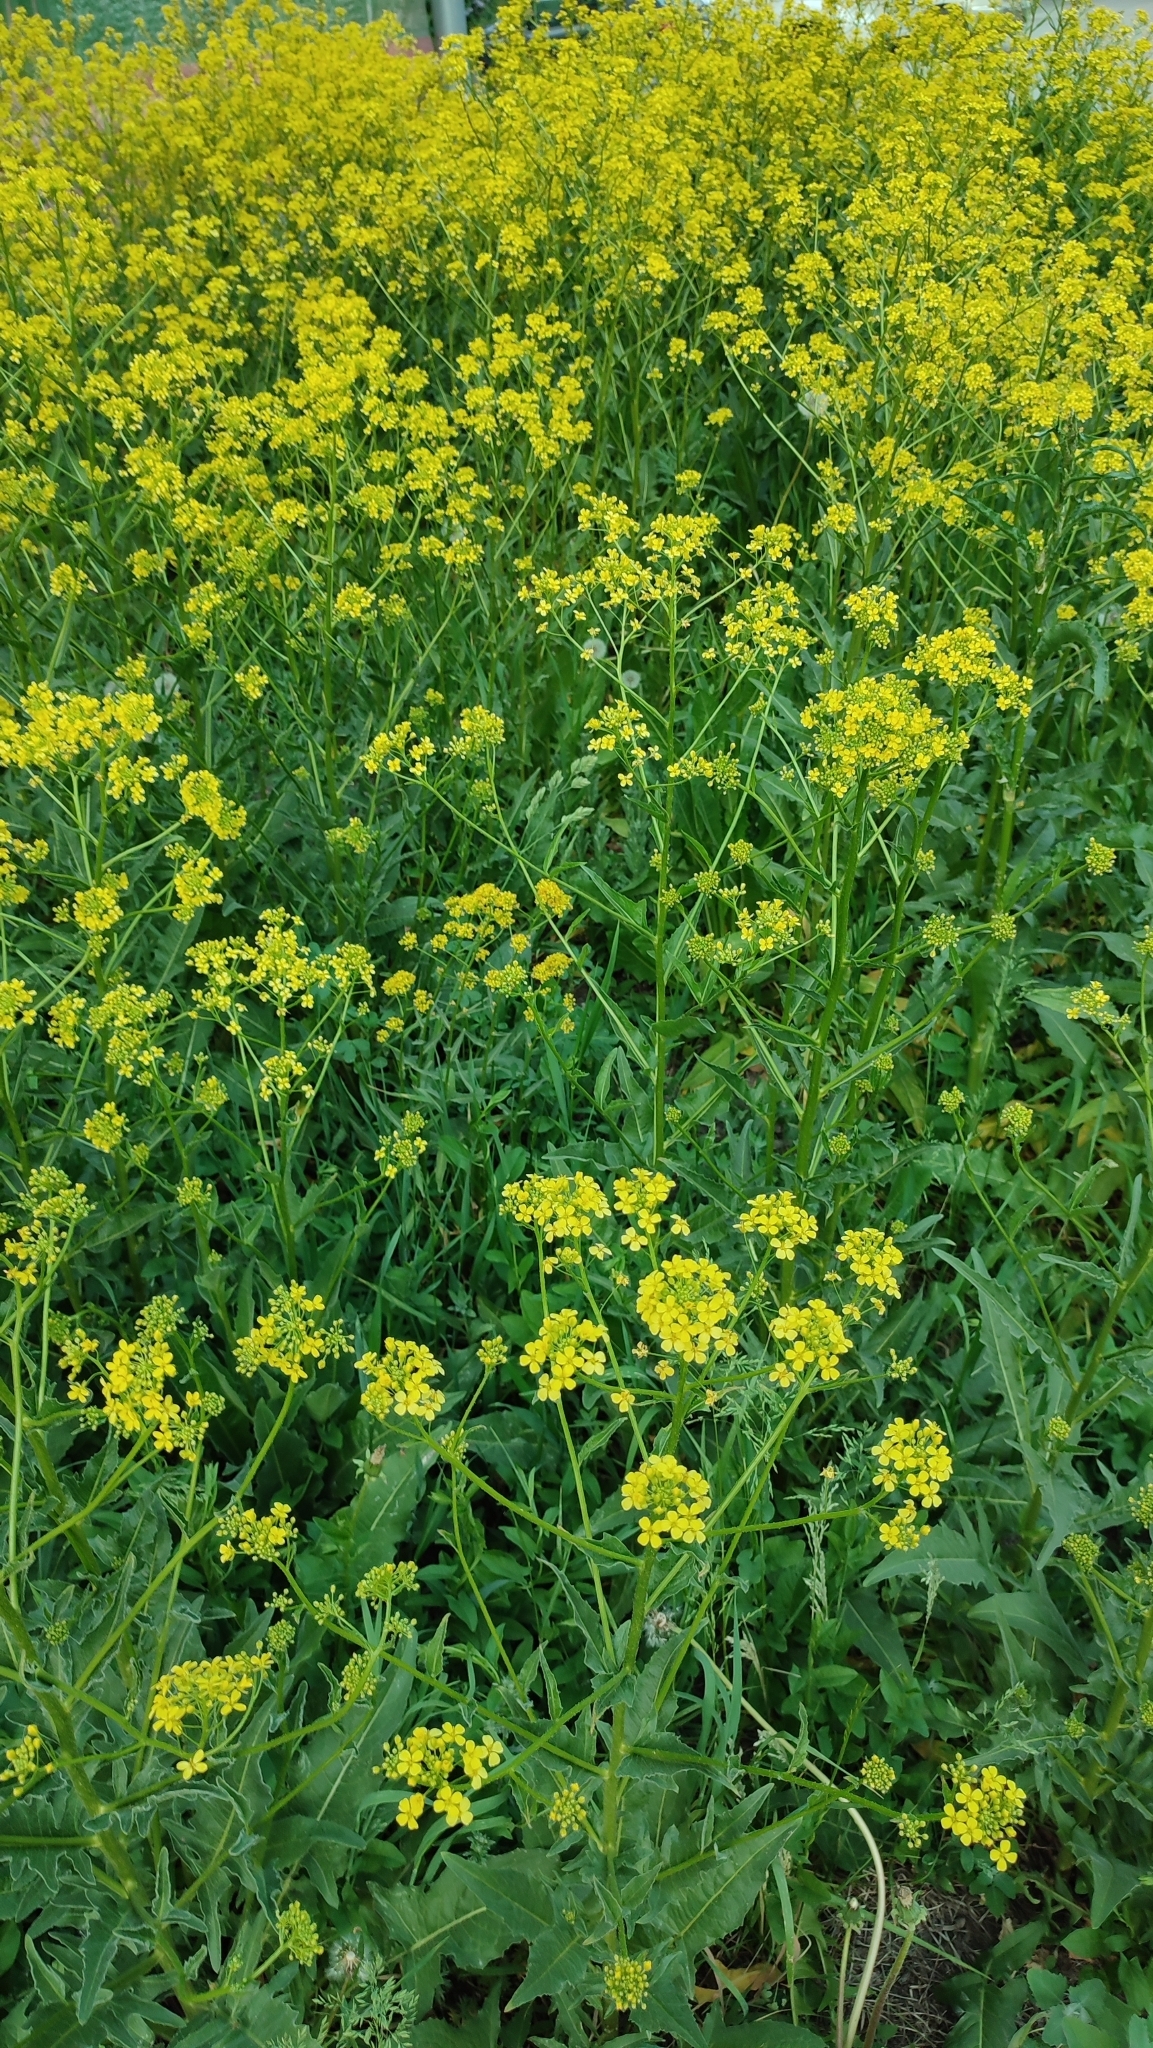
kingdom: Plantae
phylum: Tracheophyta
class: Magnoliopsida
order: Brassicales
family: Brassicaceae
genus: Bunias
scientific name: Bunias orientalis
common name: Warty-cabbage
